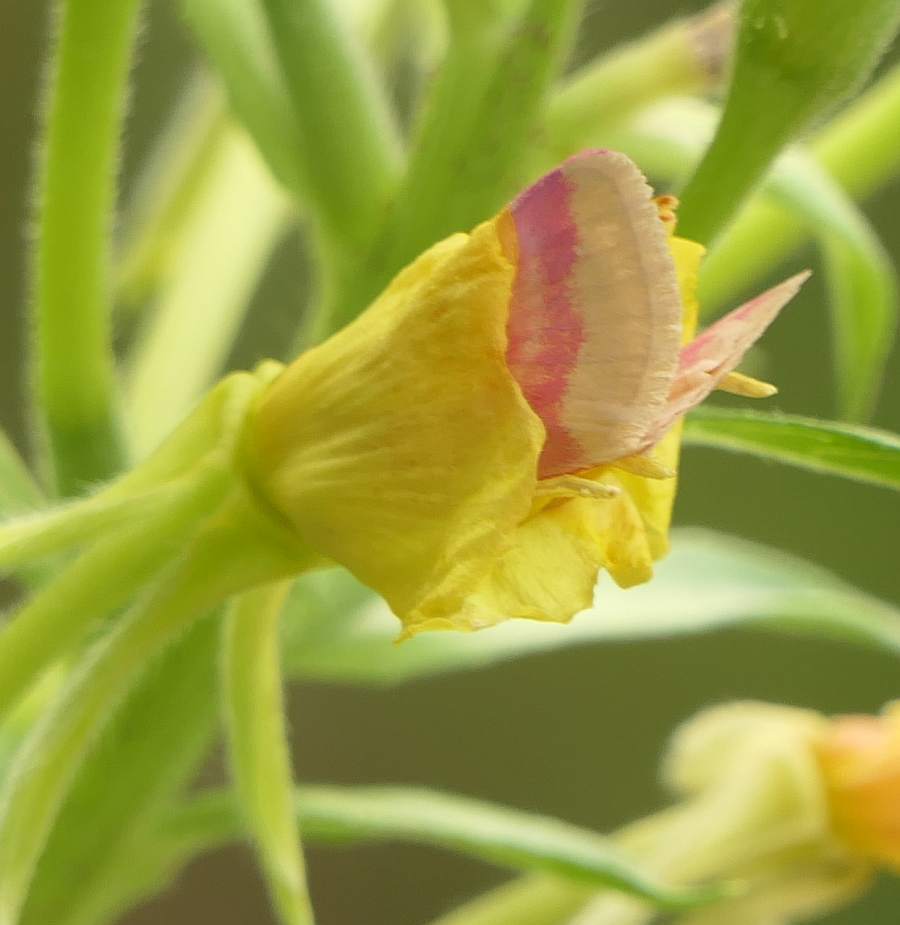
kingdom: Animalia
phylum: Arthropoda
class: Insecta
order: Lepidoptera
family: Noctuidae
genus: Schinia
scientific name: Schinia florida
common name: Primrose moth
